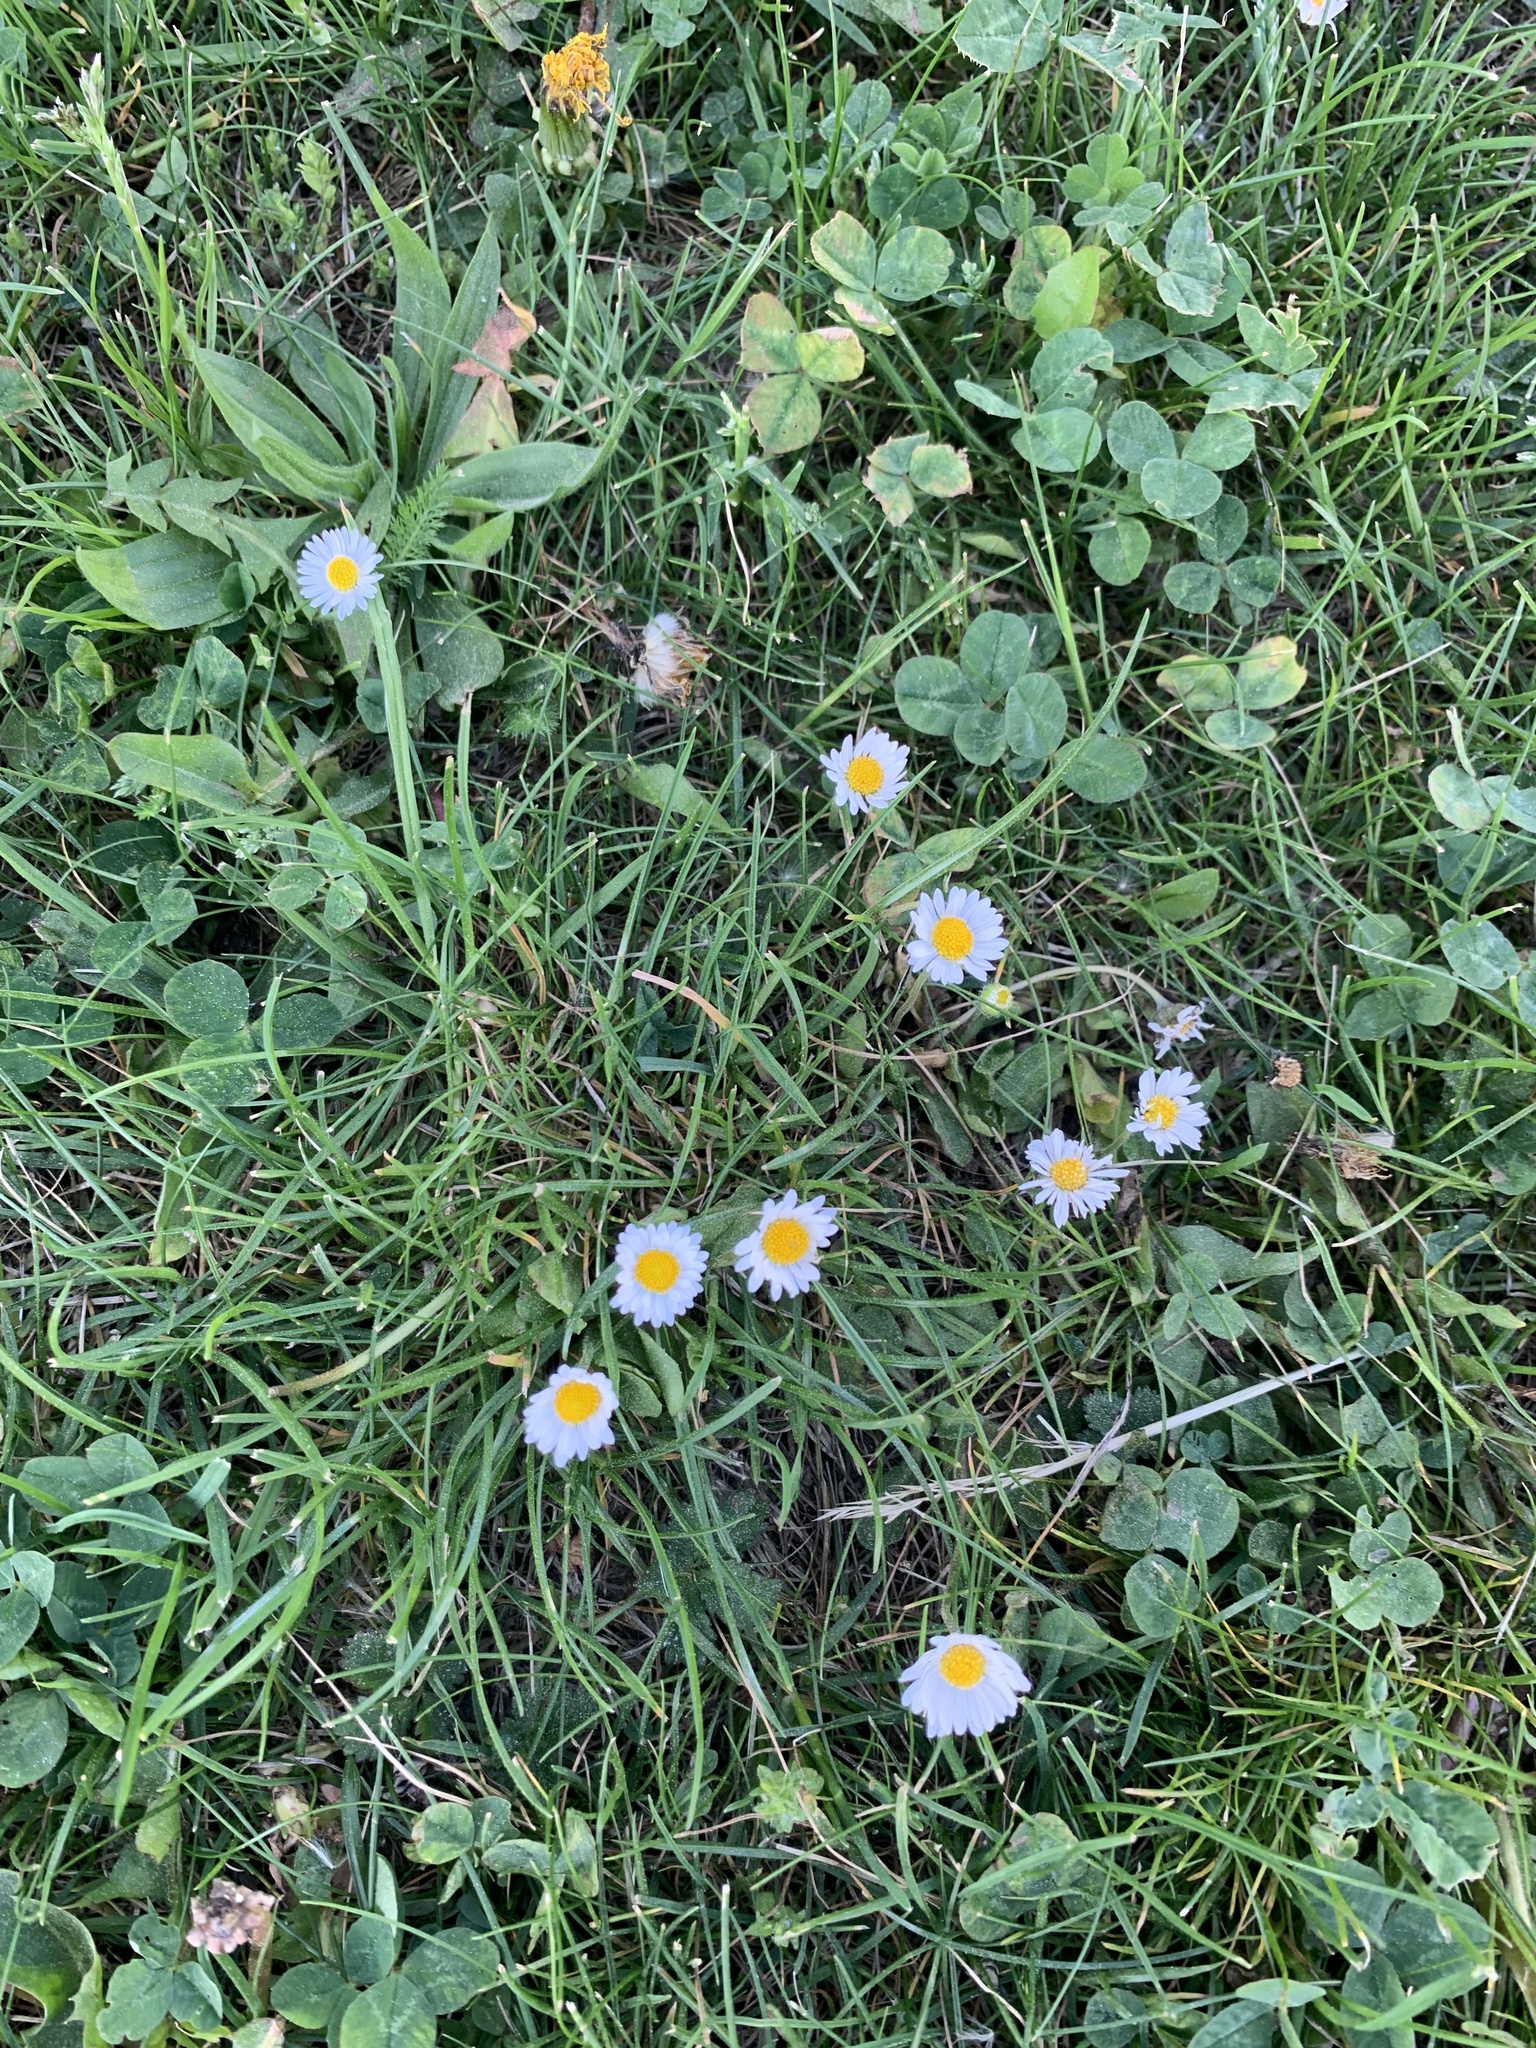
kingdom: Plantae
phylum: Tracheophyta
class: Magnoliopsida
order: Asterales
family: Asteraceae
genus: Bellis
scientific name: Bellis perennis
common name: Lawndaisy
